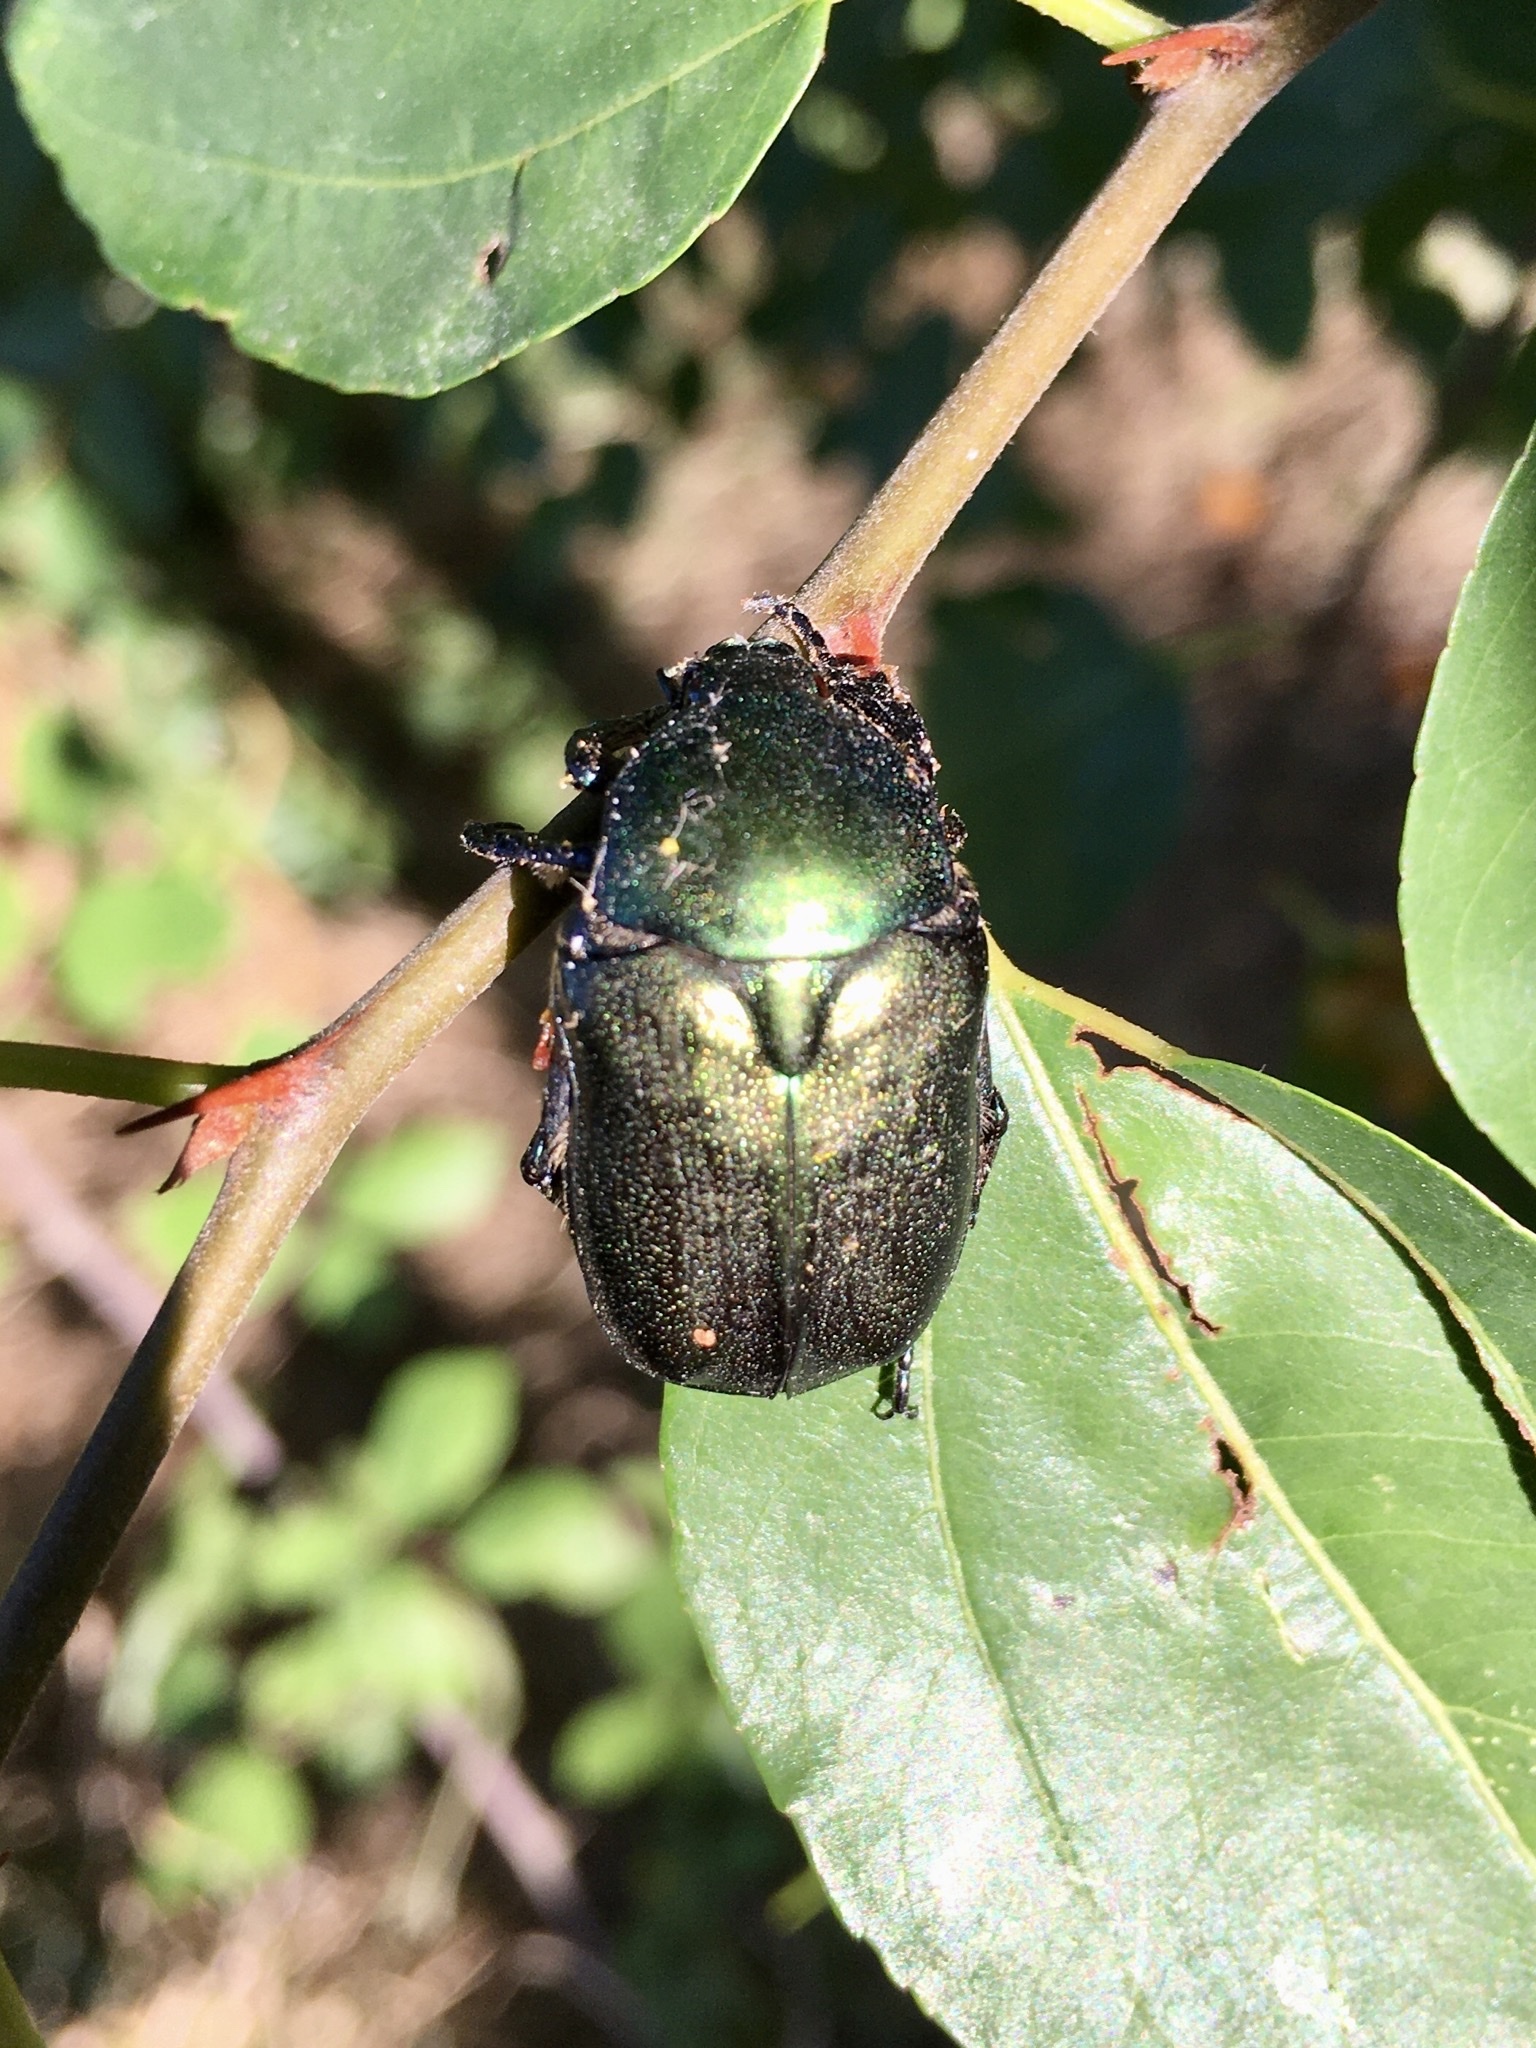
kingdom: Animalia
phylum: Arthropoda
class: Insecta
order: Coleoptera
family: Scarabaeidae
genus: Protaetia
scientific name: Protaetia angustata
